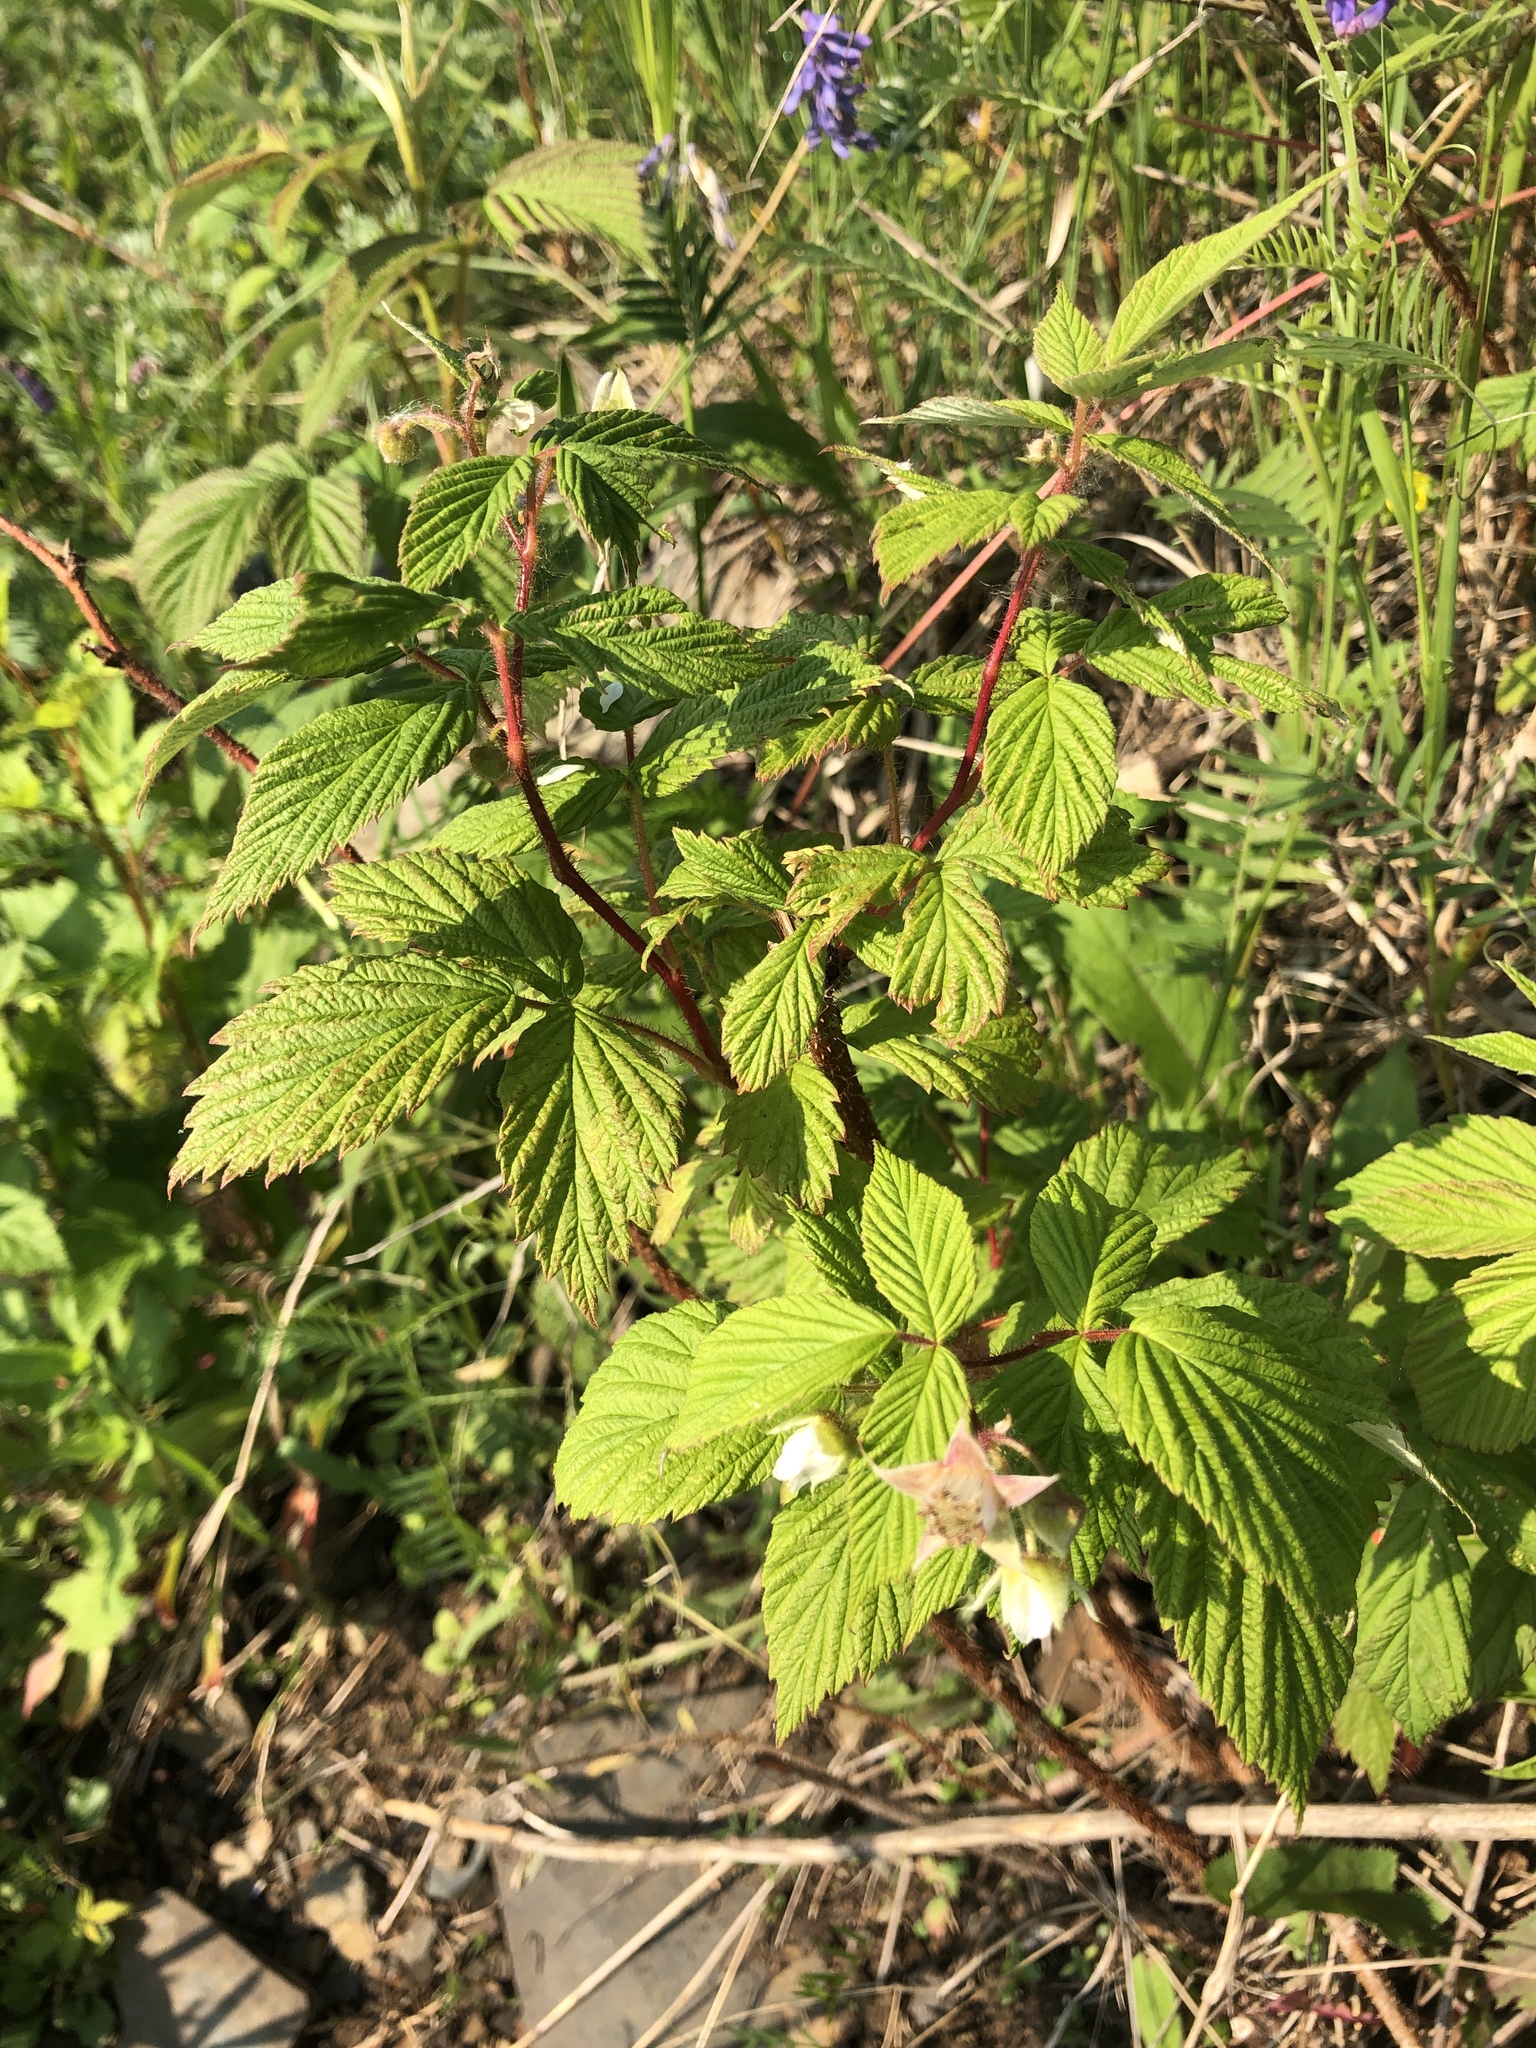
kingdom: Plantae
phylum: Tracheophyta
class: Magnoliopsida
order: Rosales
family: Rosaceae
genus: Rubus
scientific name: Rubus idaeus
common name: Raspberry
